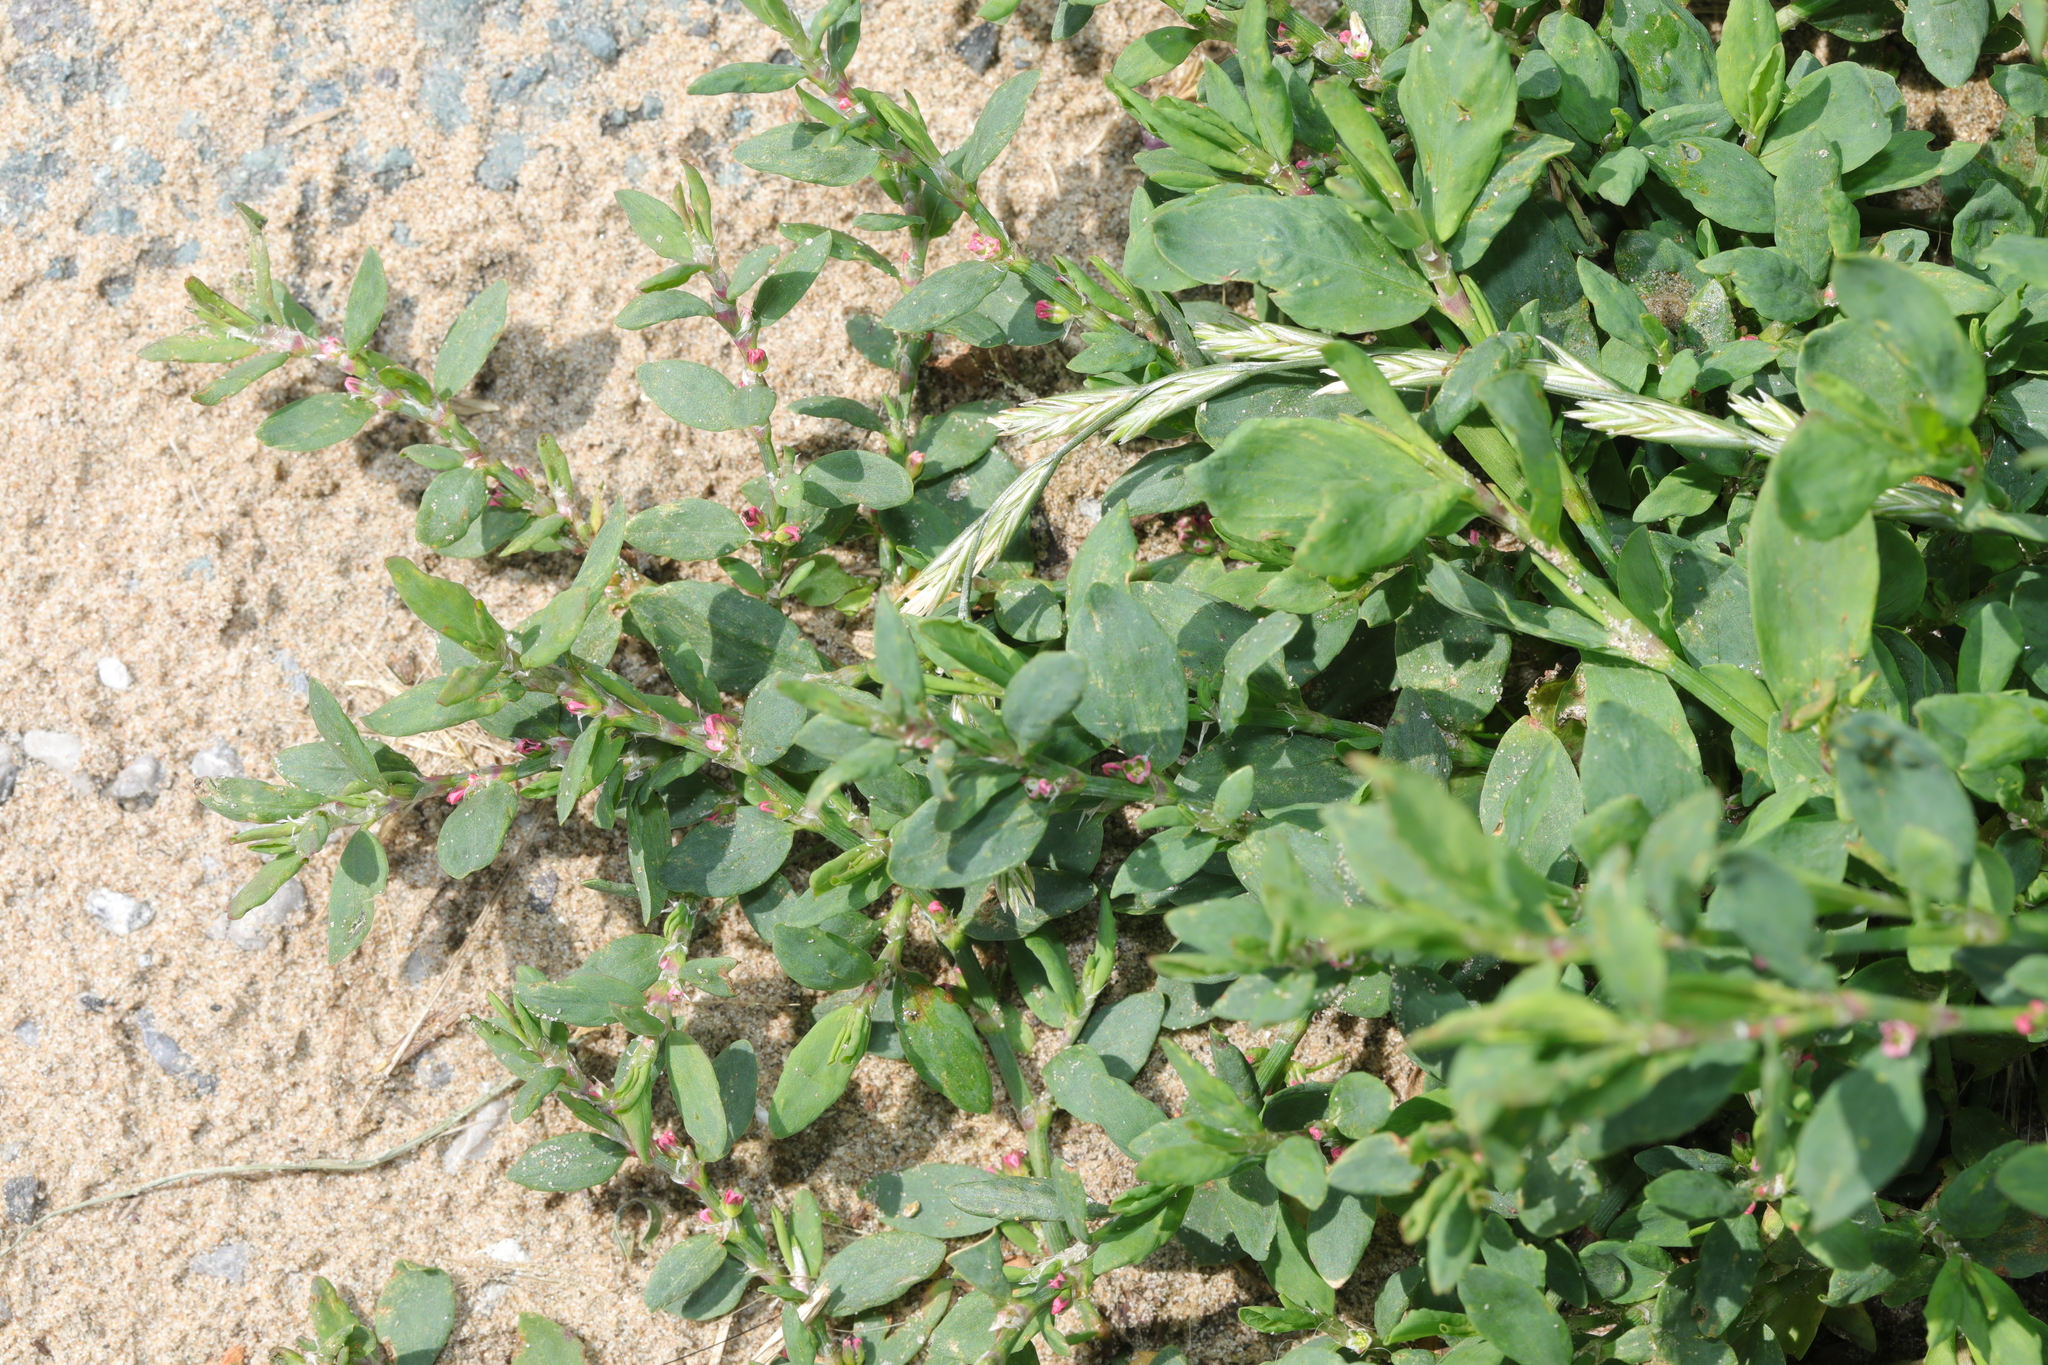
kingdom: Plantae
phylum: Tracheophyta
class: Magnoliopsida
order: Caryophyllales
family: Polygonaceae
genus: Polygonum
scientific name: Polygonum aviculare
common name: Prostrate knotweed
